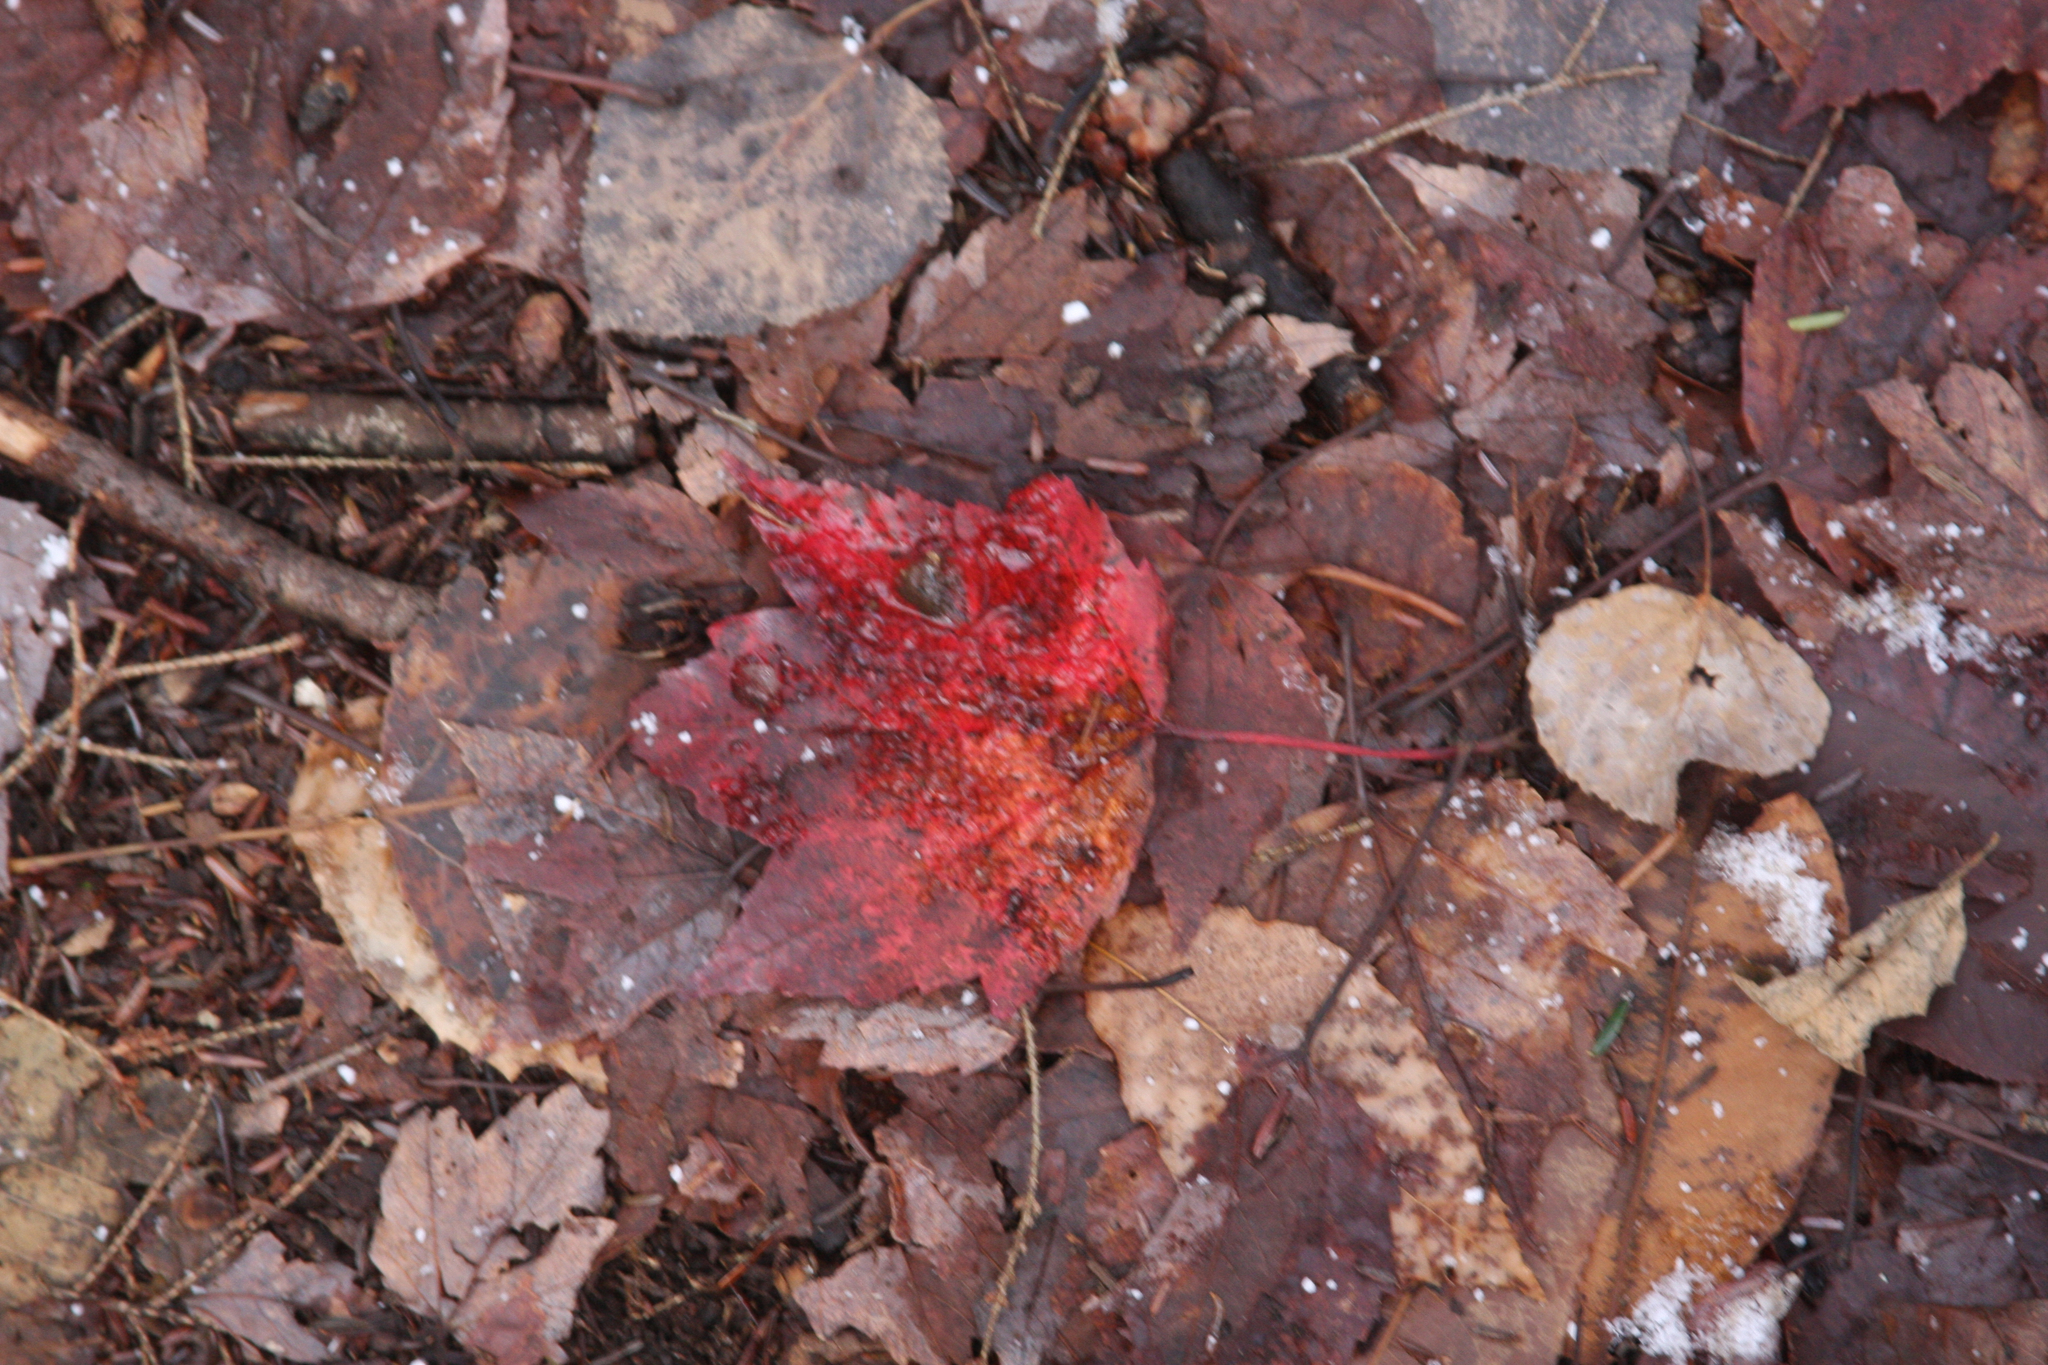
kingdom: Plantae
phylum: Tracheophyta
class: Magnoliopsida
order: Sapindales
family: Sapindaceae
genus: Acer
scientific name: Acer rubrum
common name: Red maple
